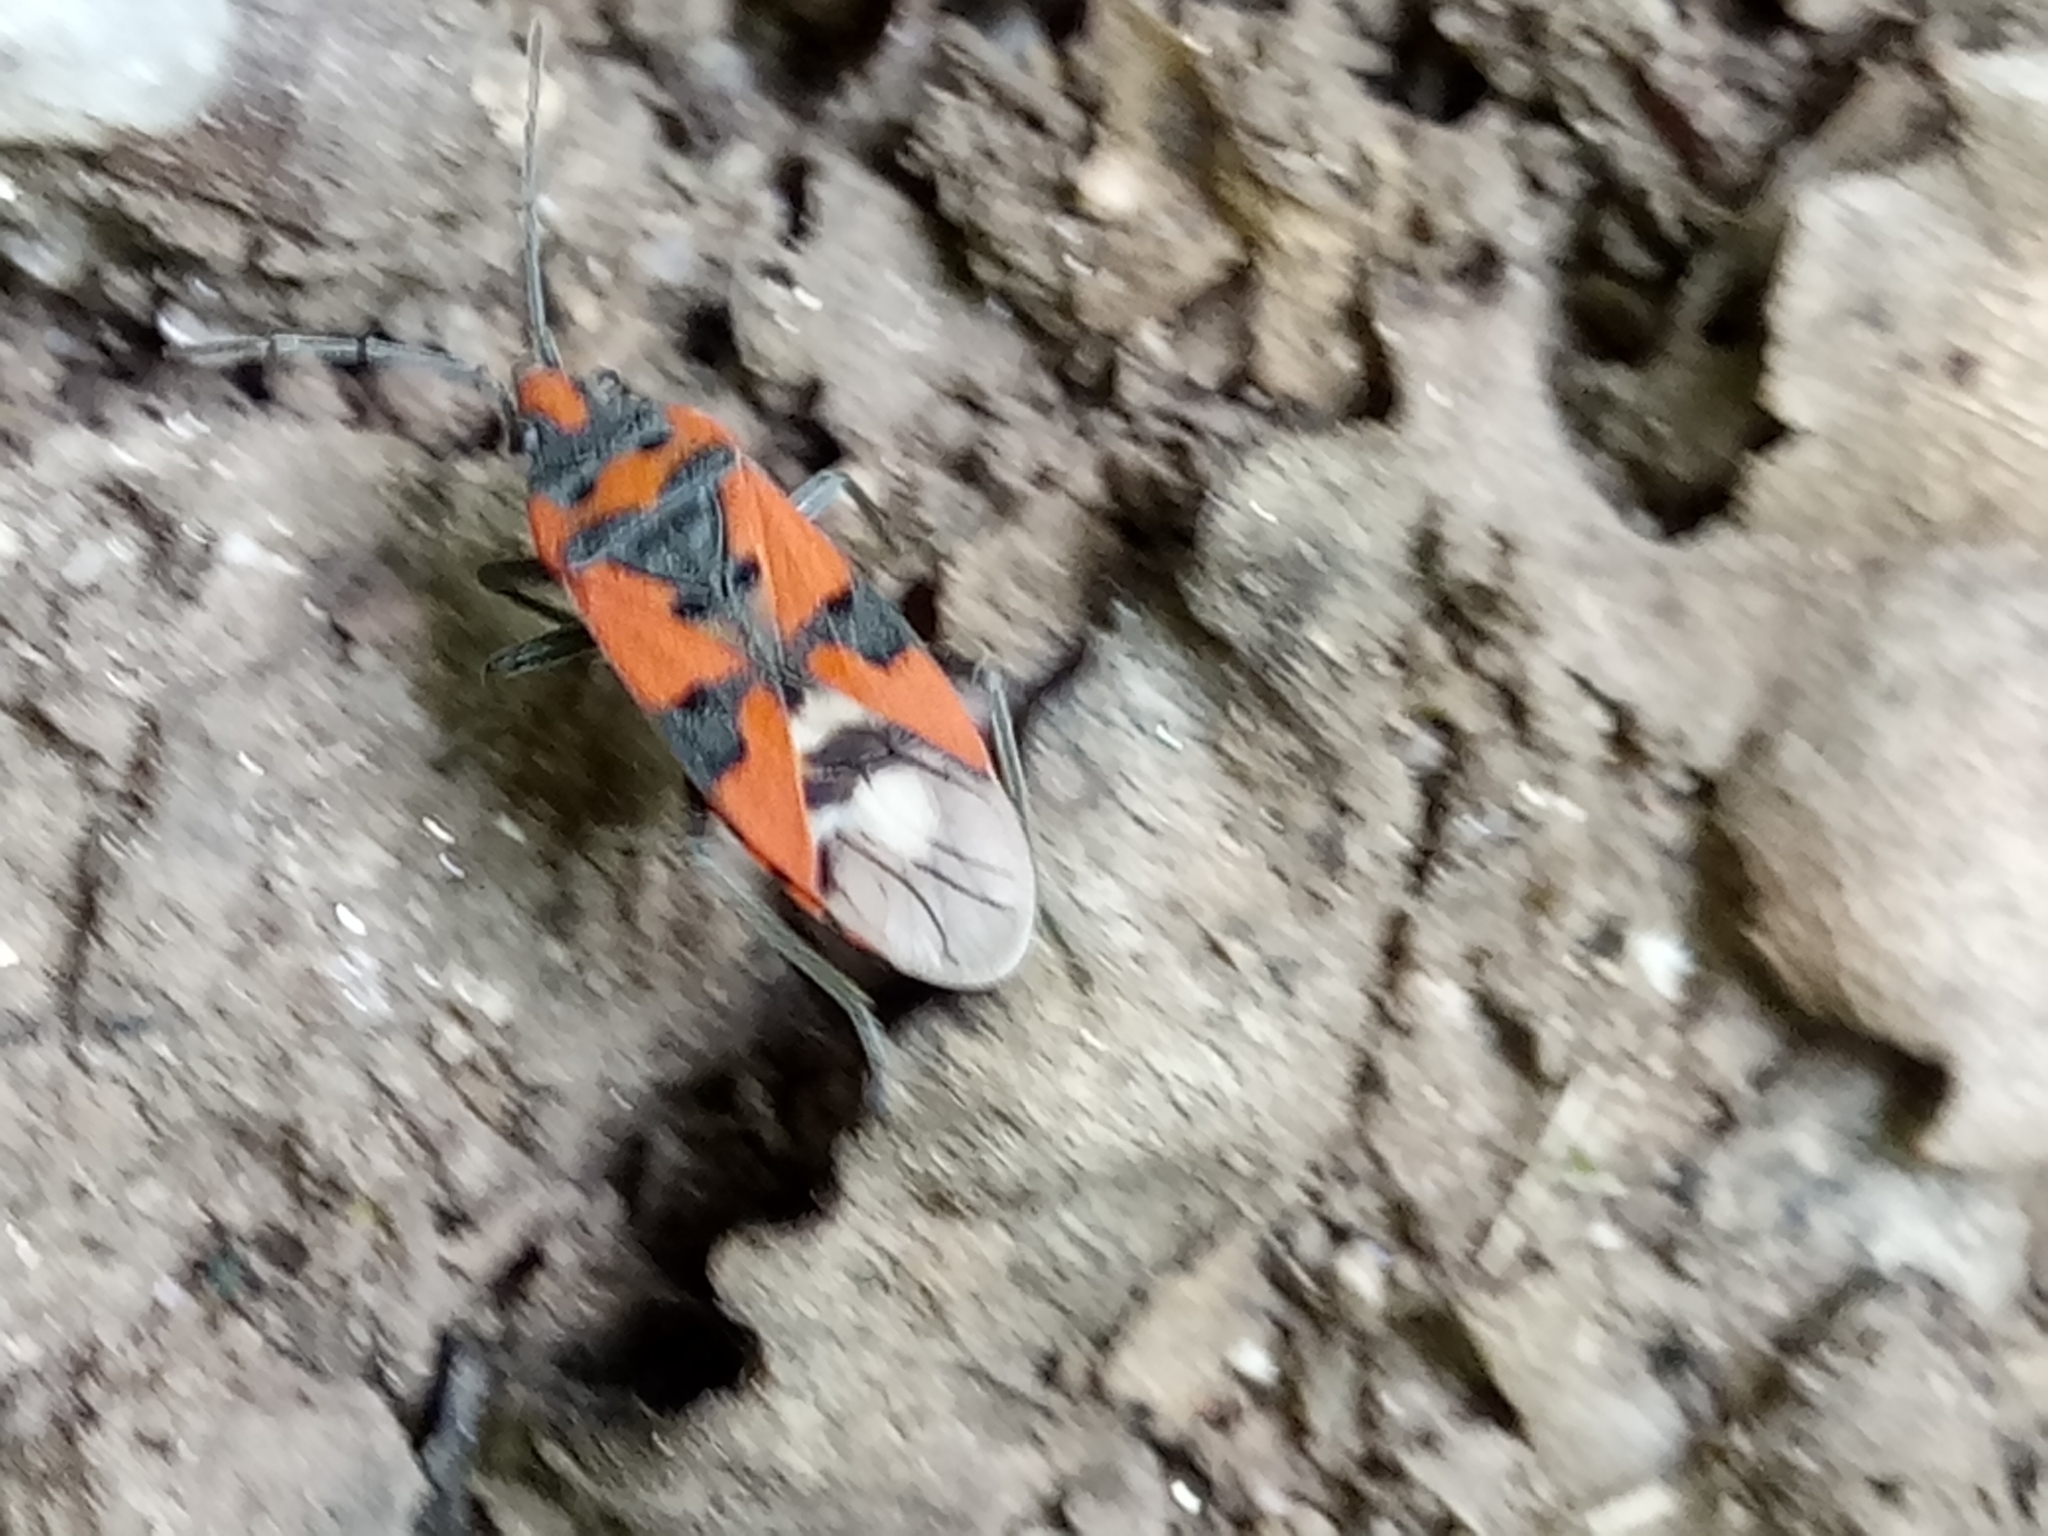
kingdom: Animalia
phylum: Arthropoda
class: Insecta
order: Hemiptera
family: Lygaeidae
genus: Lygaeus
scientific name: Lygaeus equestris
